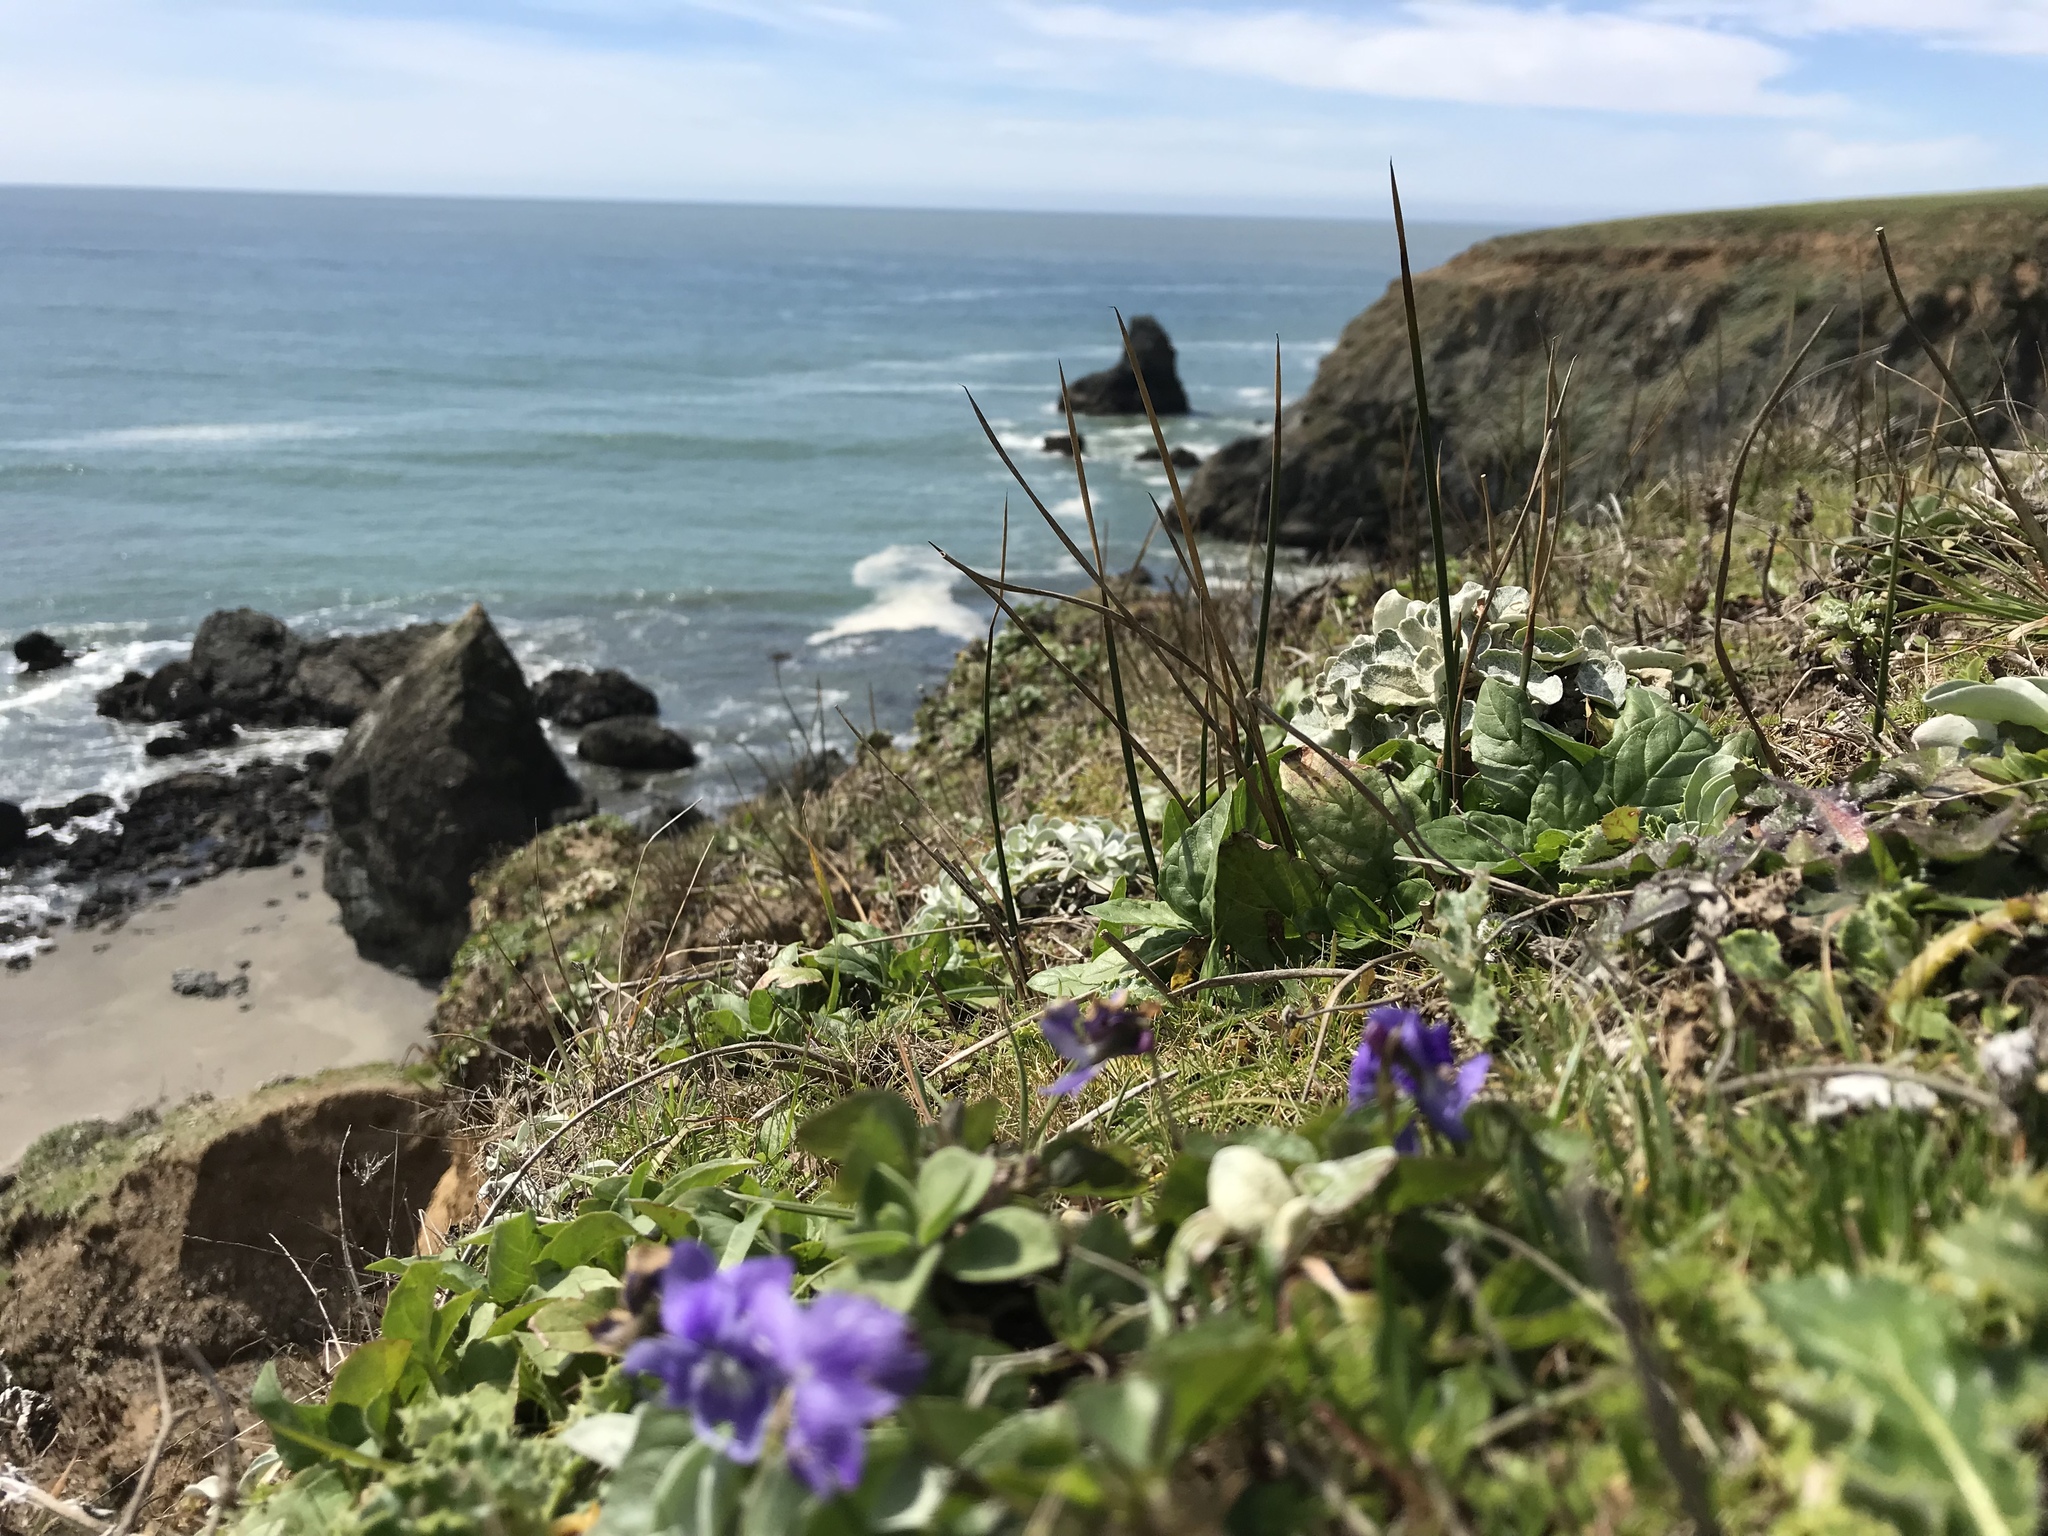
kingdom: Plantae
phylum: Tracheophyta
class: Magnoliopsida
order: Malpighiales
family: Violaceae
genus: Viola
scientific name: Viola adunca
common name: Sand violet
